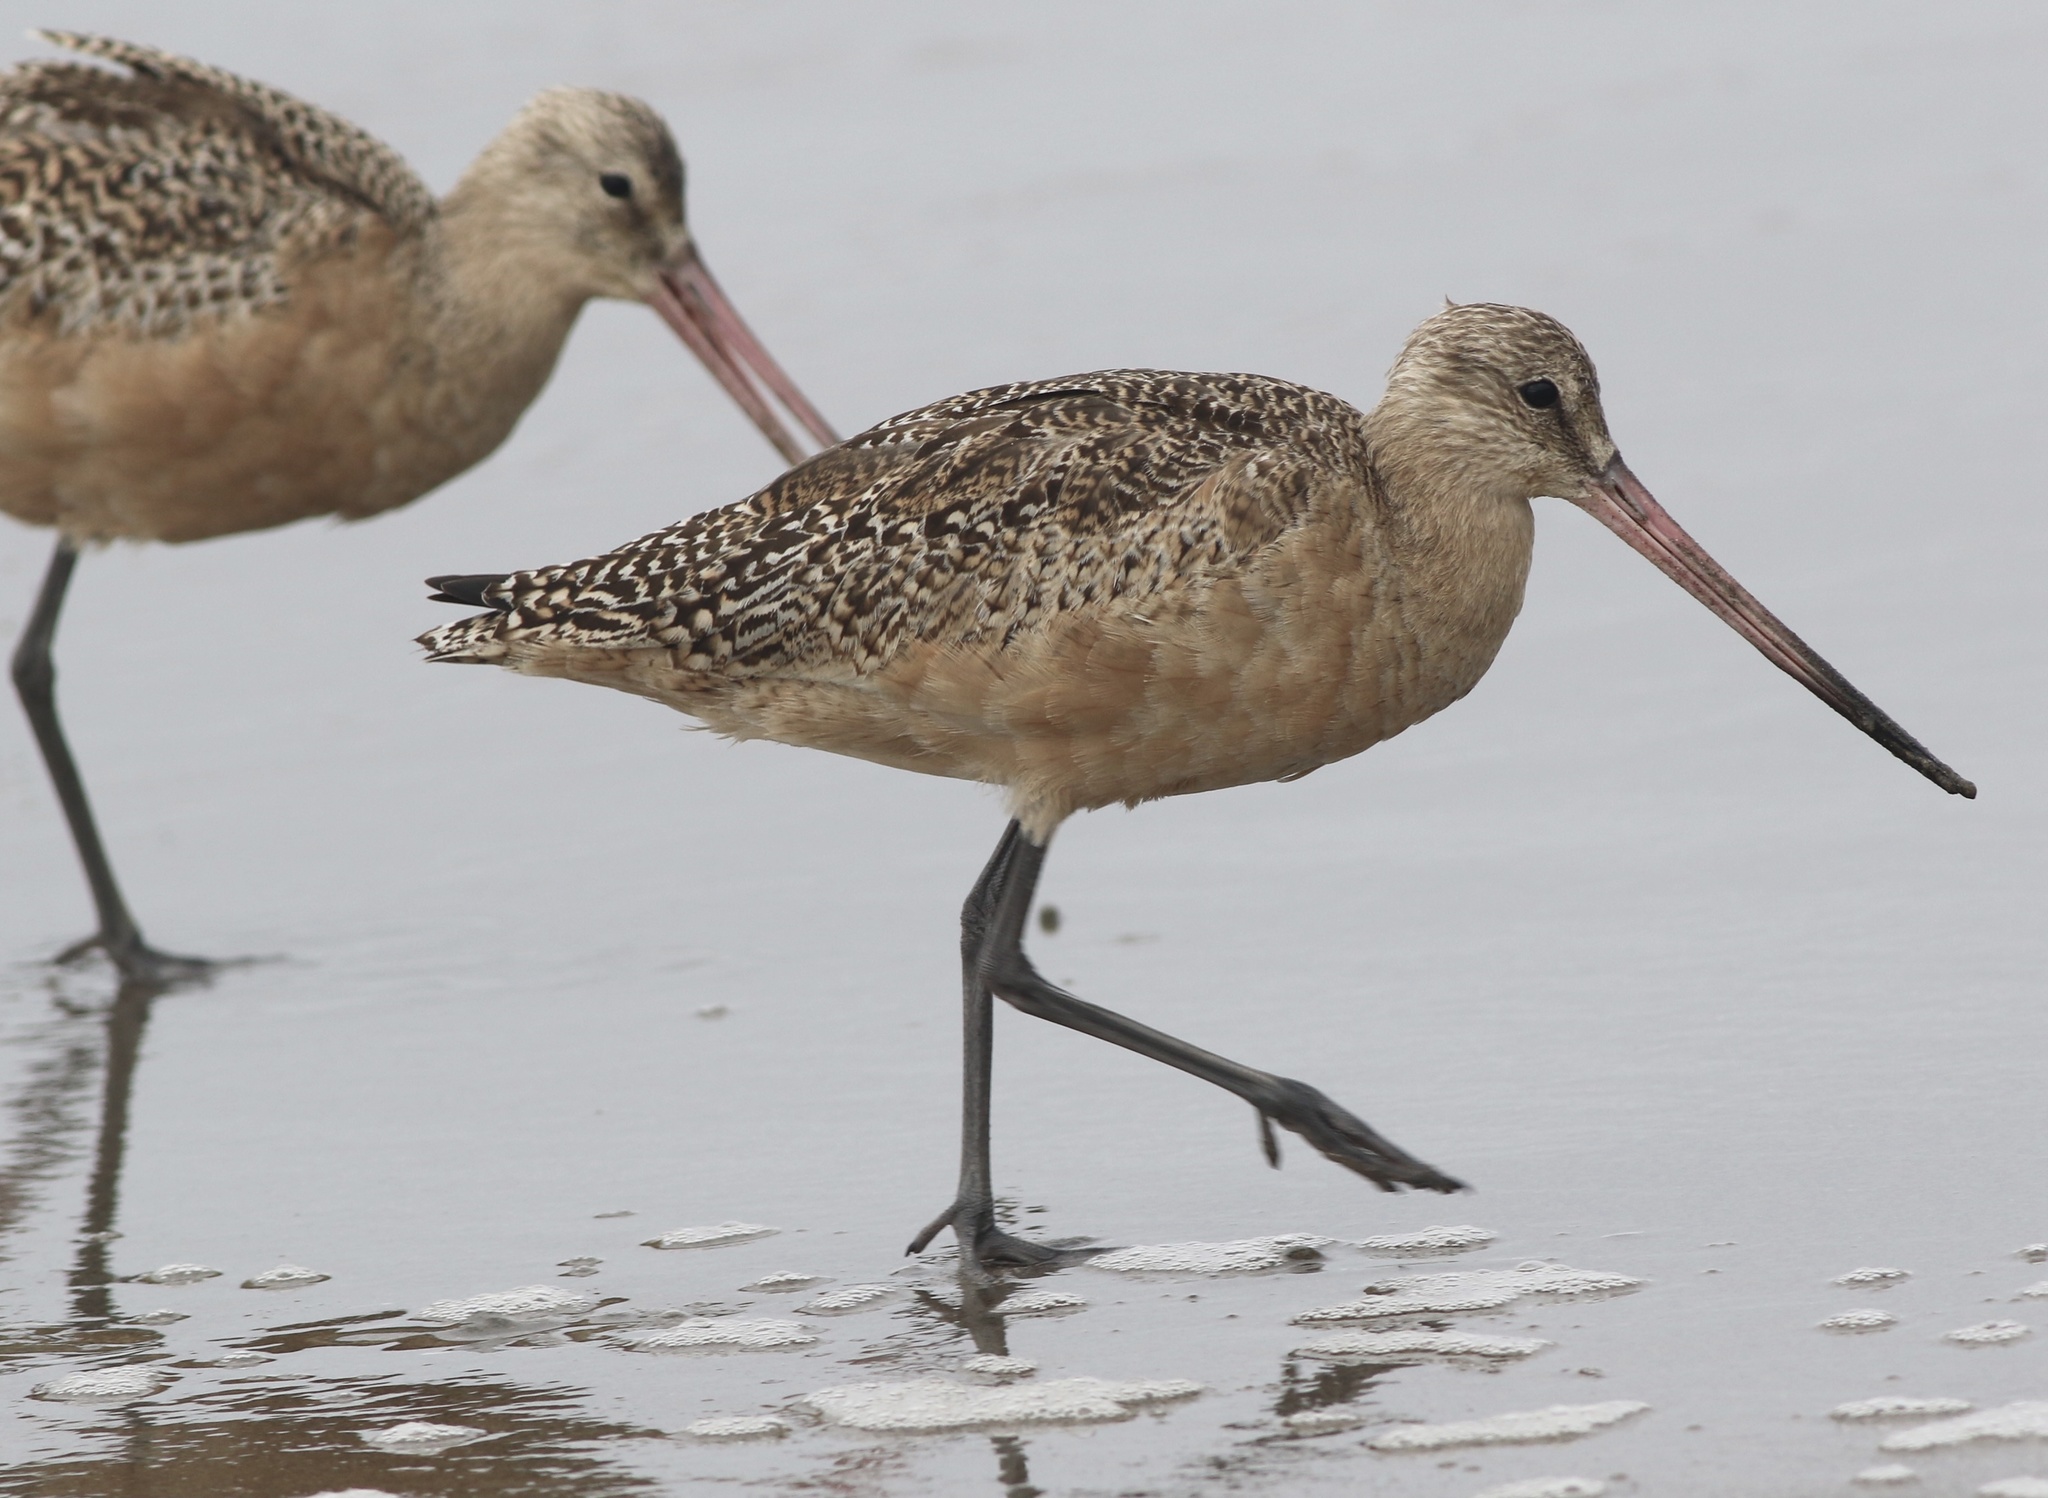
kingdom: Animalia
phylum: Chordata
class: Aves
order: Charadriiformes
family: Scolopacidae
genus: Limosa
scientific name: Limosa fedoa
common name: Marbled godwit
